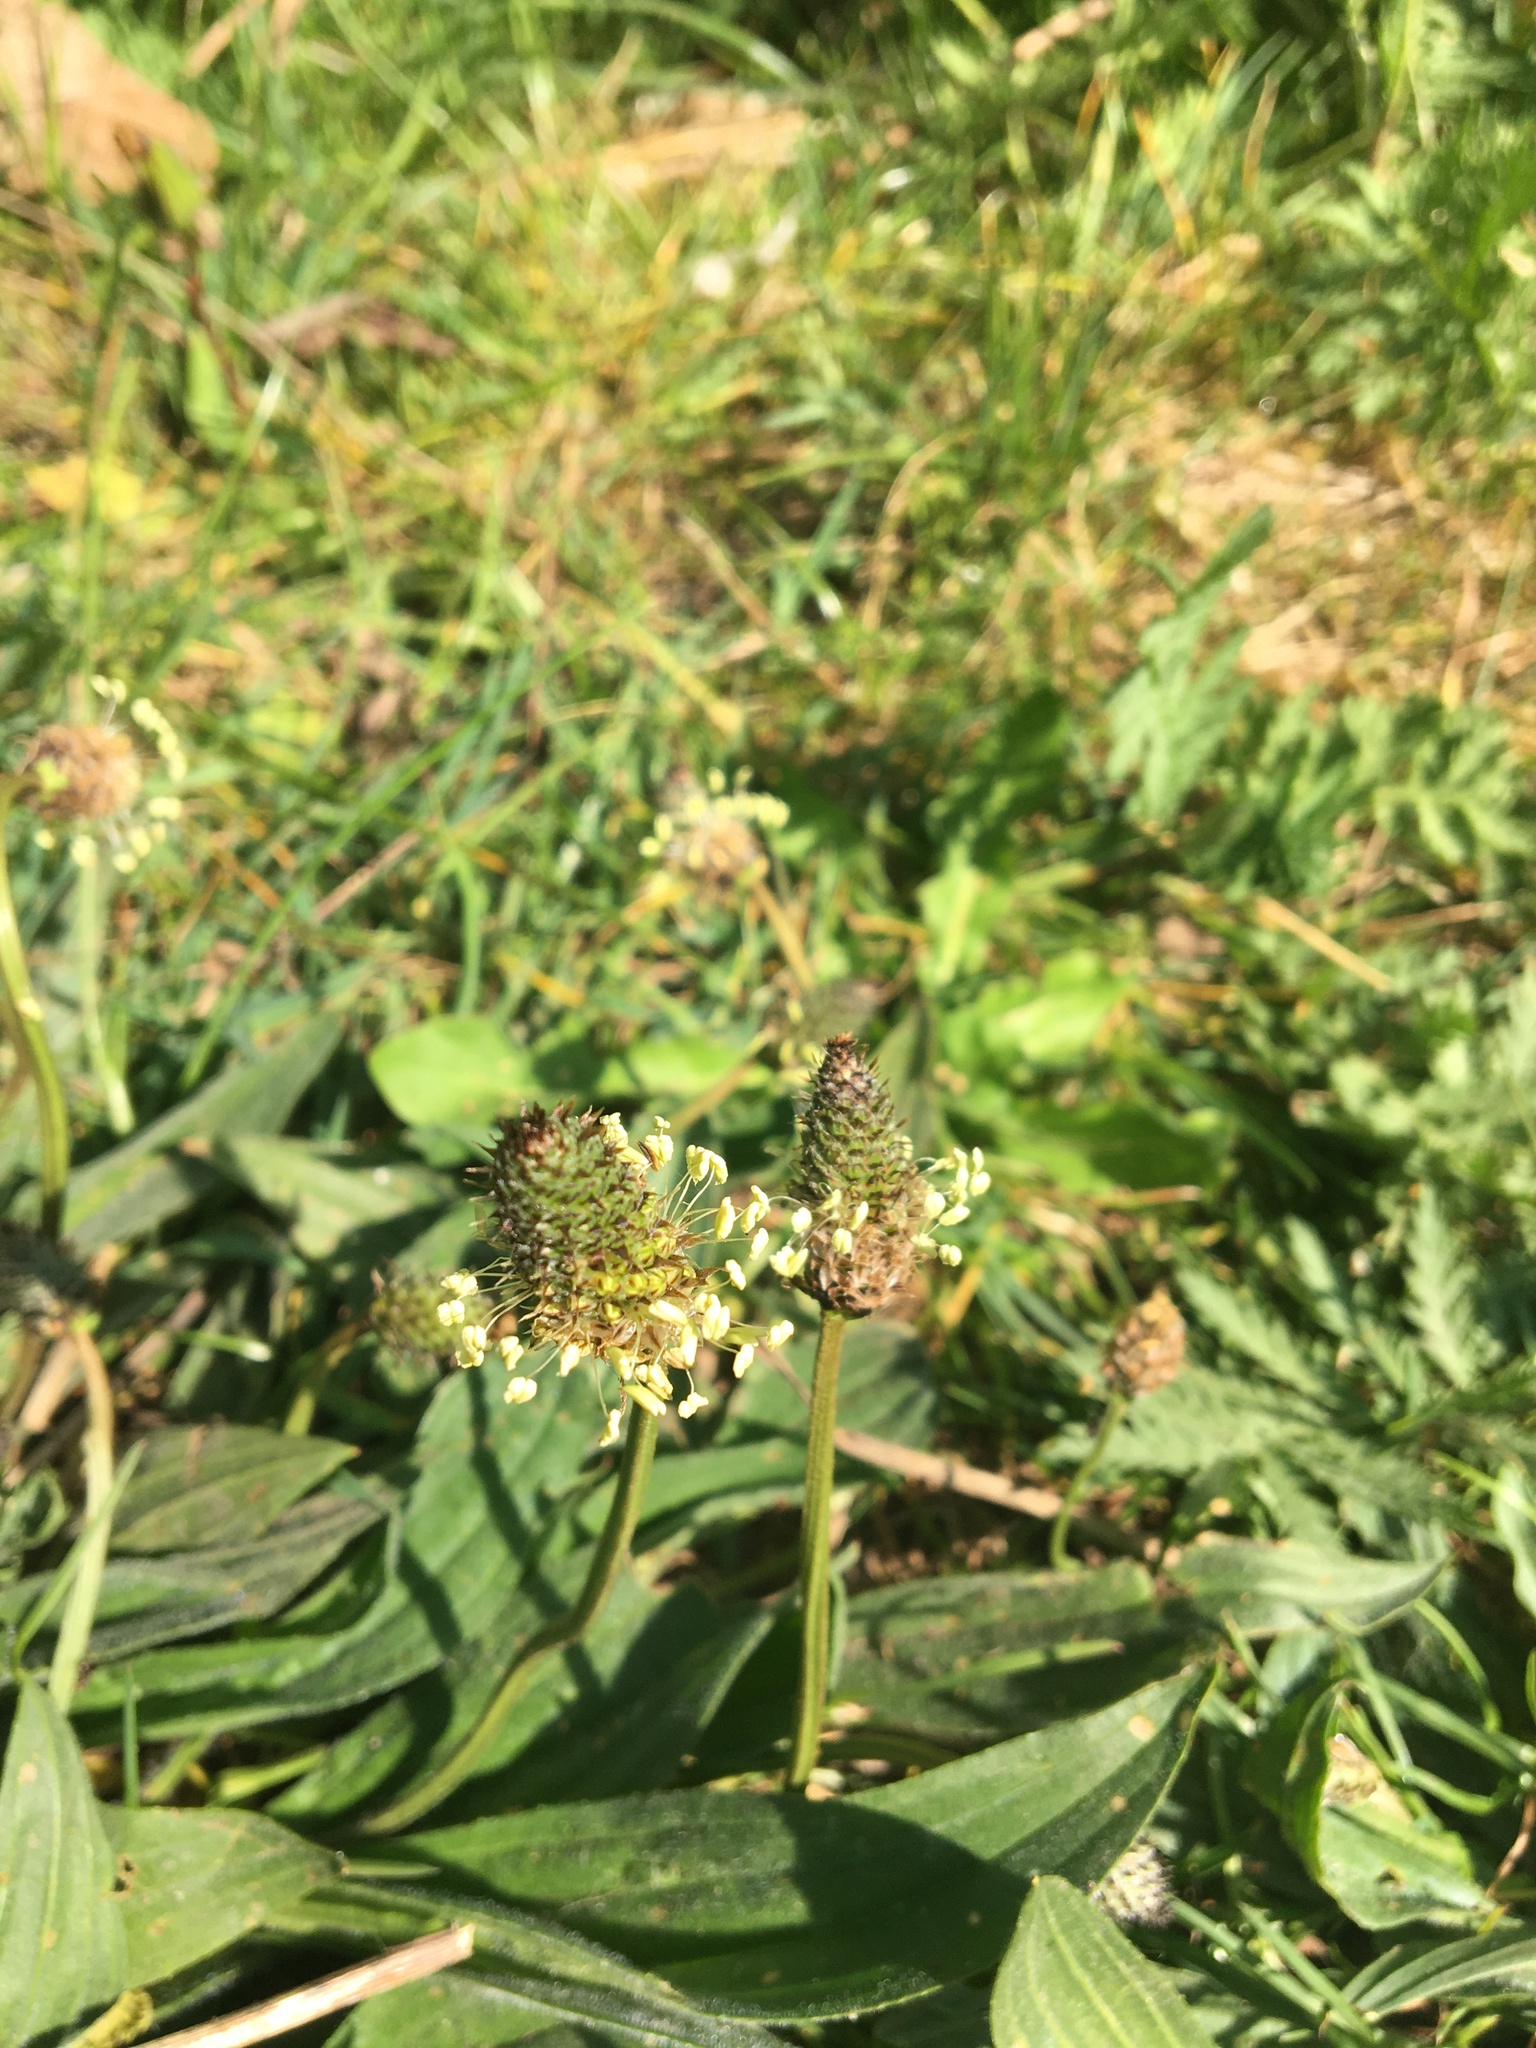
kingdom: Plantae
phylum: Tracheophyta
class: Magnoliopsida
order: Lamiales
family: Plantaginaceae
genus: Plantago
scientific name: Plantago lanceolata
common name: Ribwort plantain
